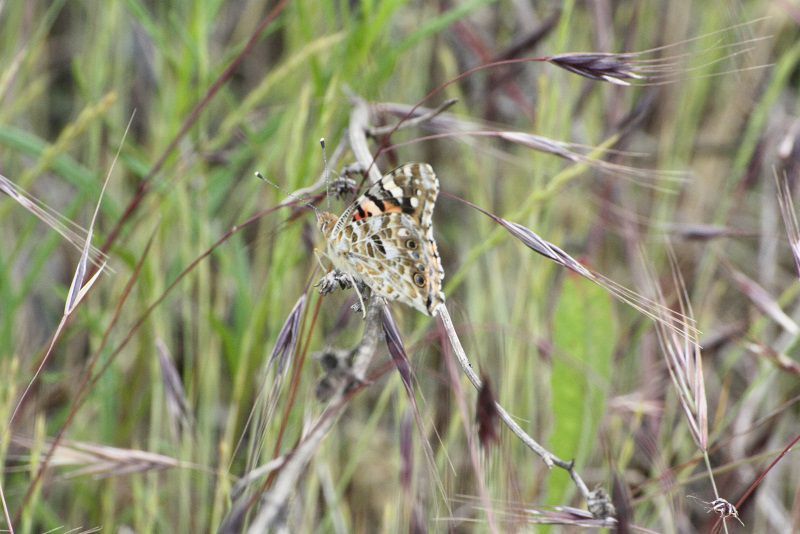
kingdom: Animalia
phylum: Arthropoda
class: Insecta
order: Lepidoptera
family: Nymphalidae
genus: Vanessa
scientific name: Vanessa cardui
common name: Painted lady
